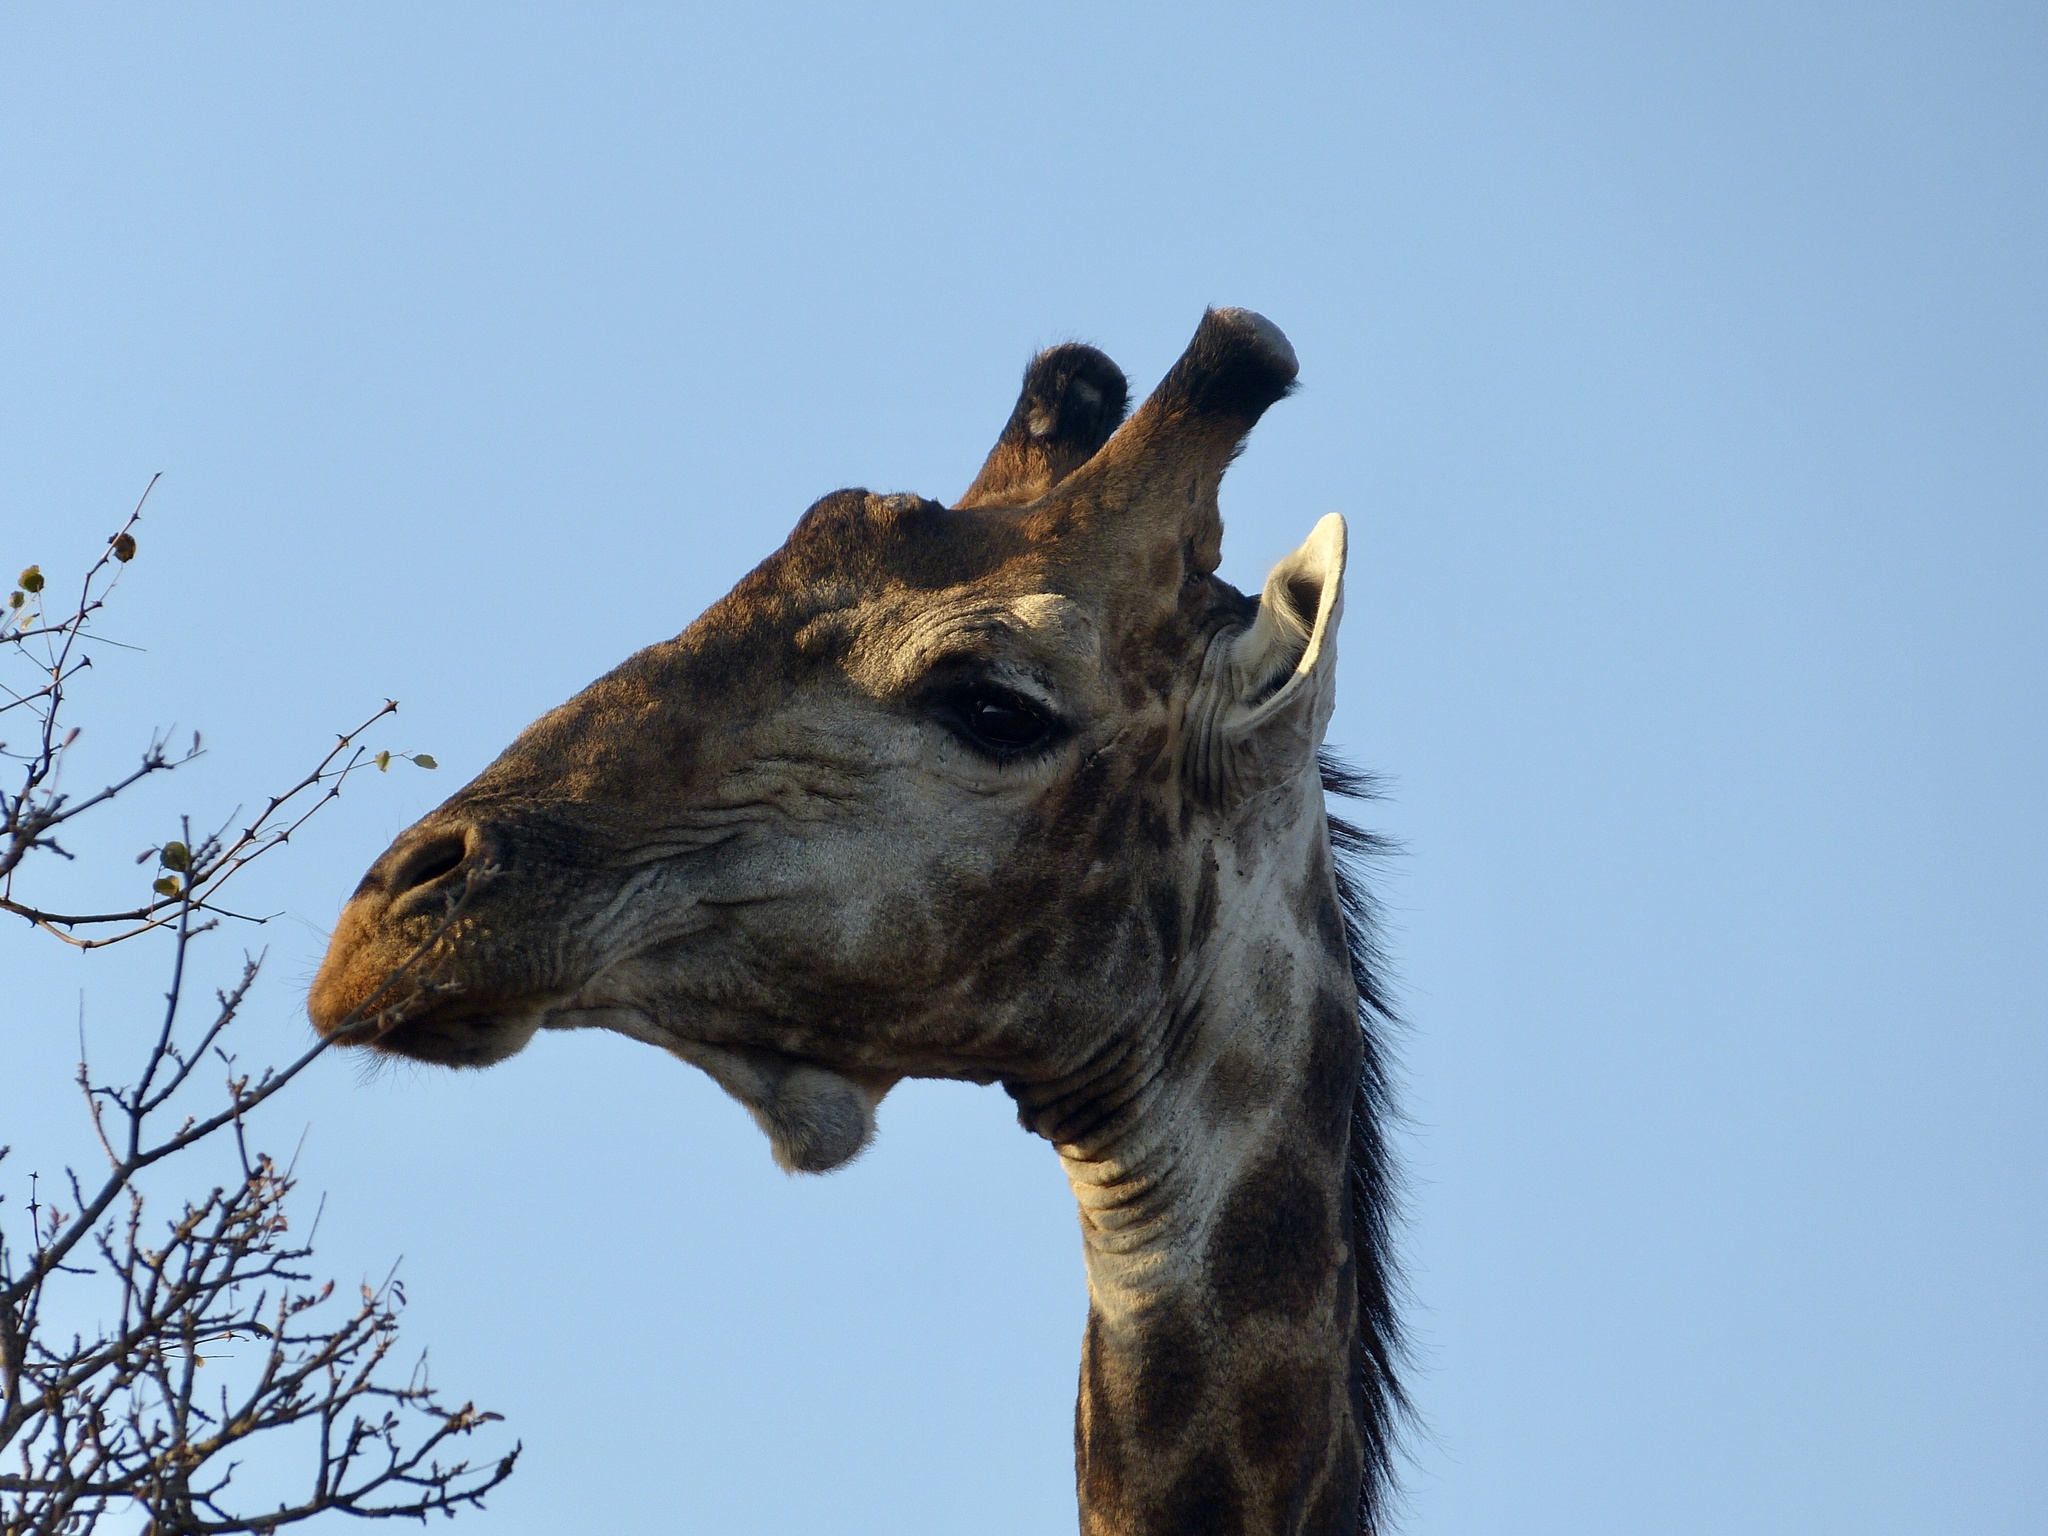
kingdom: Animalia
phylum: Chordata
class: Mammalia
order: Artiodactyla
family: Giraffidae
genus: Giraffa
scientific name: Giraffa giraffa
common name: Southern giraffe
